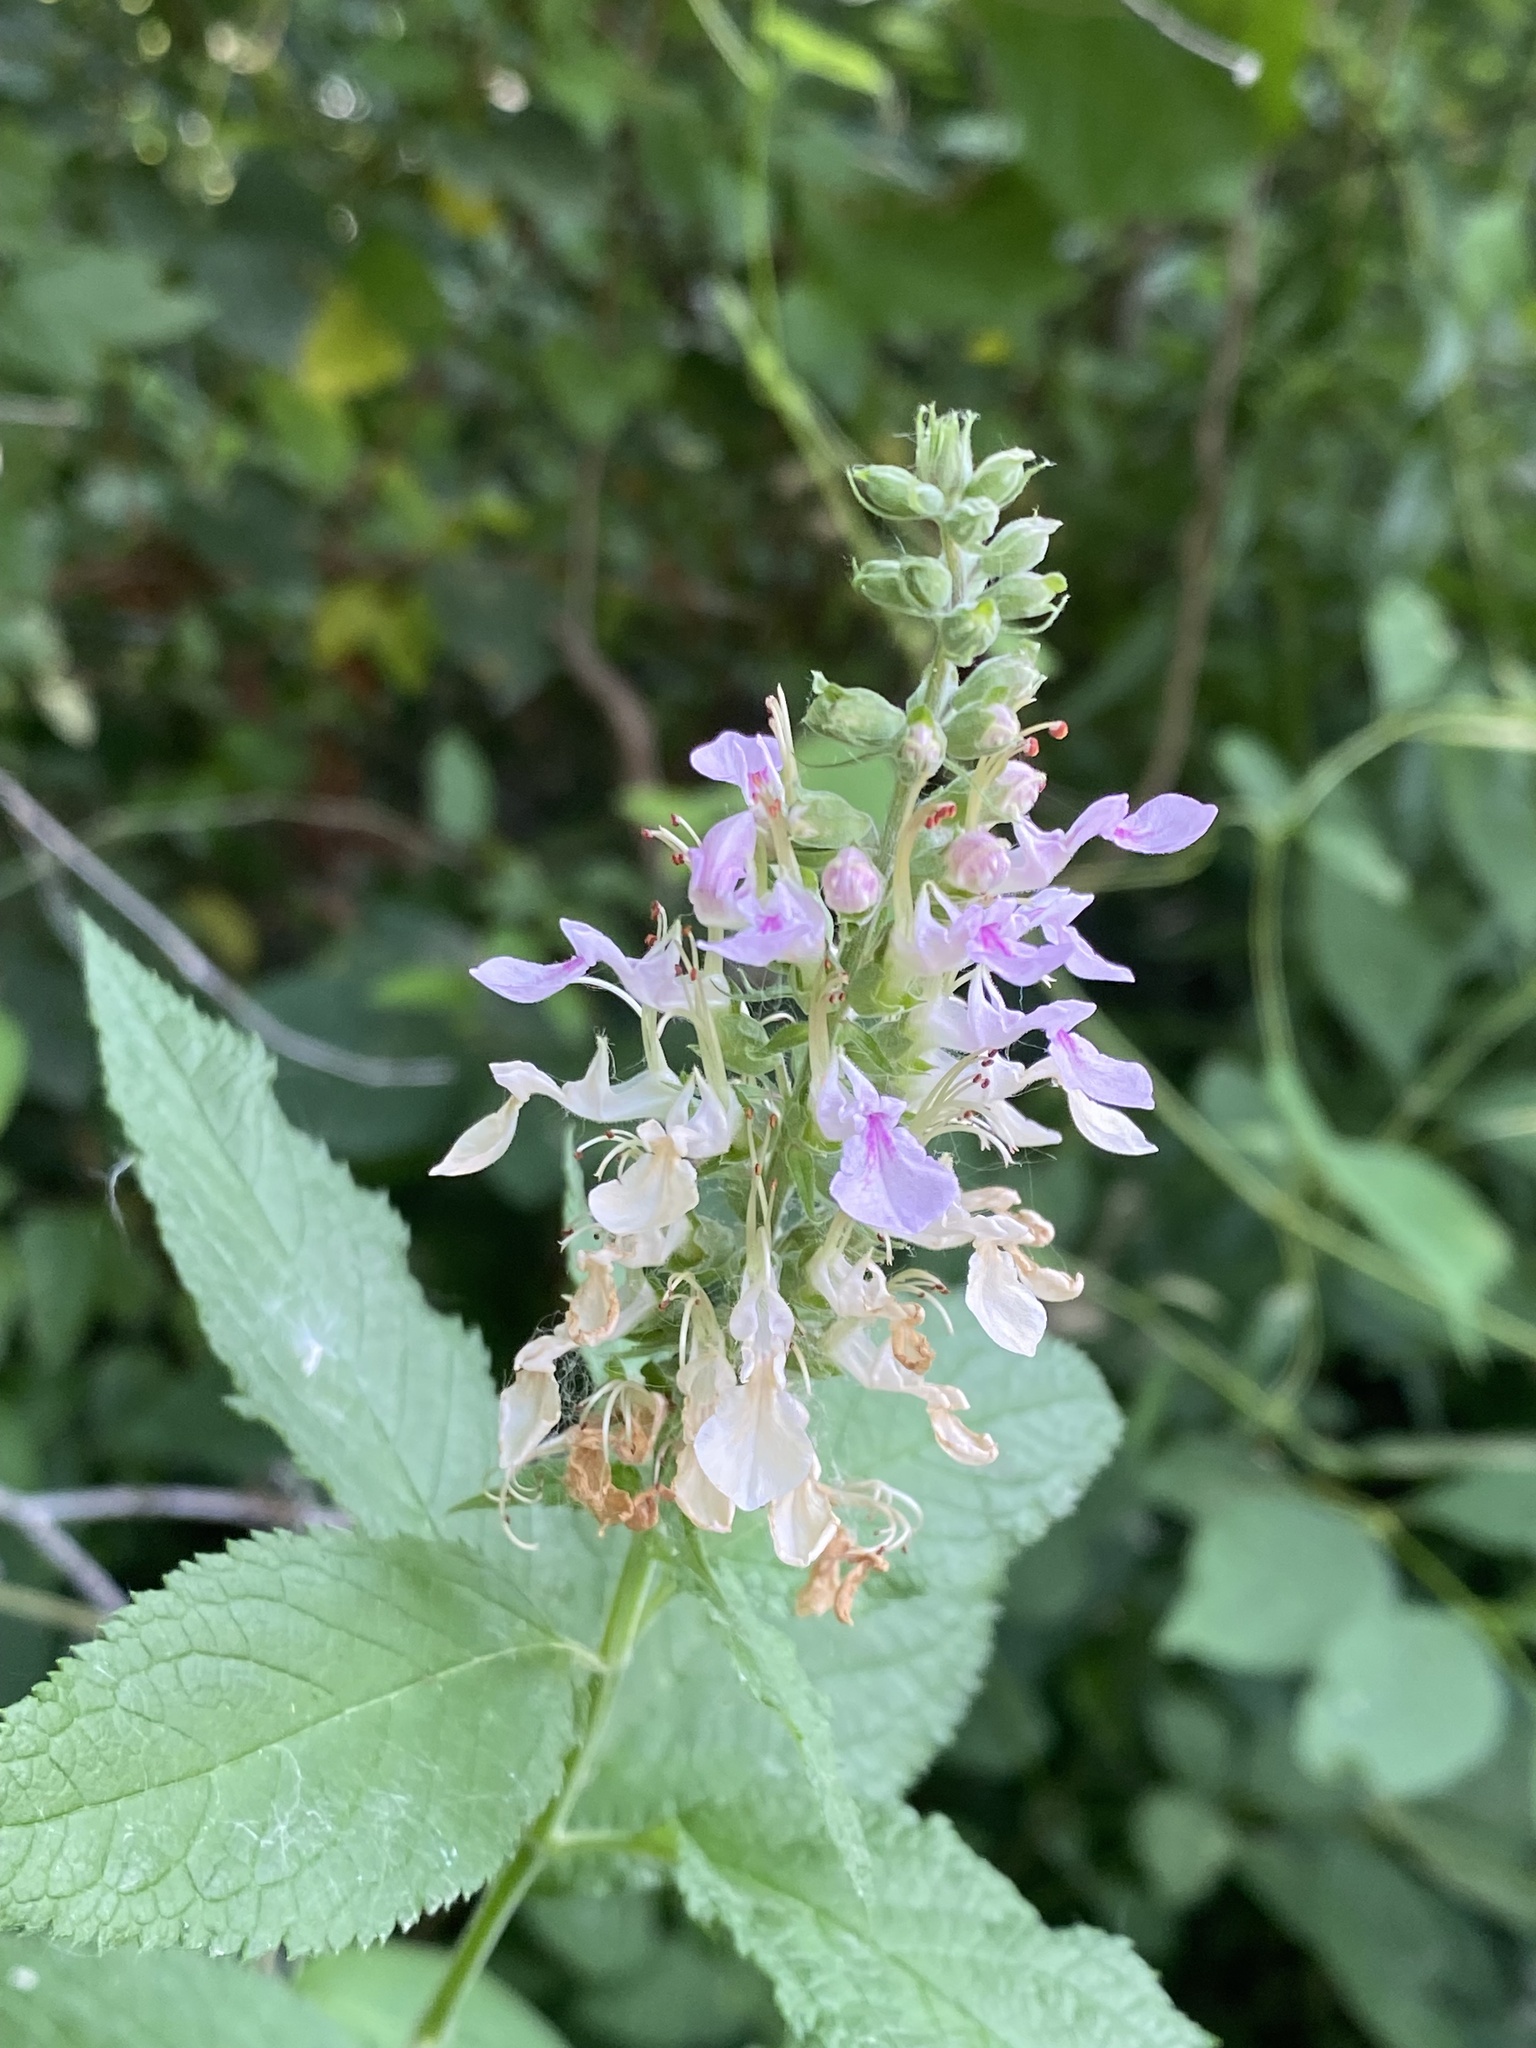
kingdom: Plantae
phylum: Tracheophyta
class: Magnoliopsida
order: Lamiales
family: Lamiaceae
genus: Teucrium
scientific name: Teucrium canadense
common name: American germander
